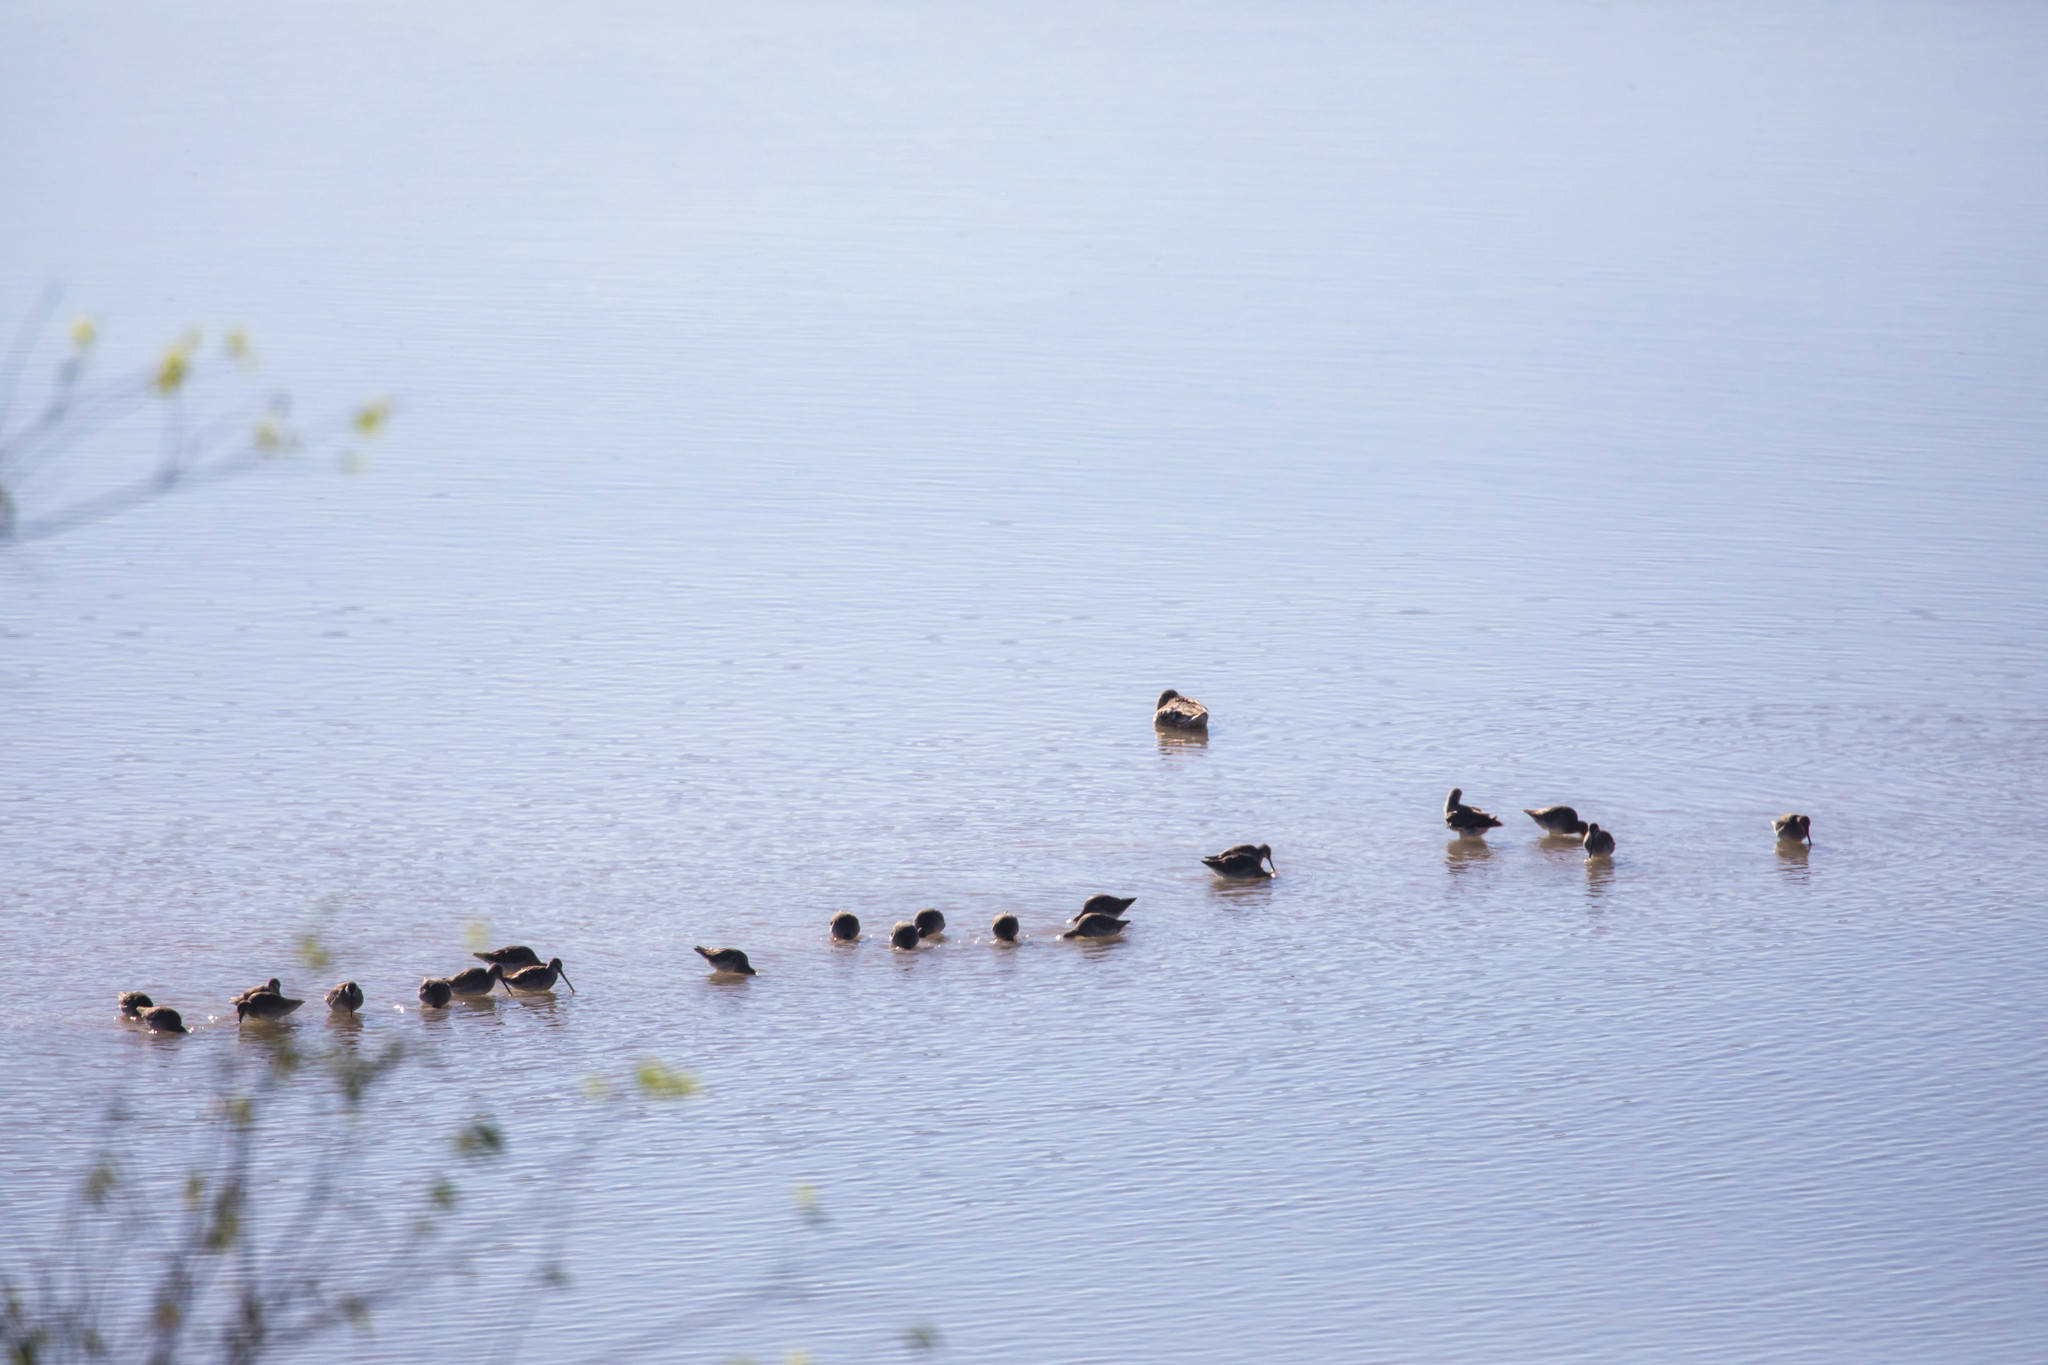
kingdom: Animalia
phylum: Chordata
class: Aves
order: Charadriiformes
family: Scolopacidae
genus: Limnodromus
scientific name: Limnodromus scolopaceus
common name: Long-billed dowitcher
